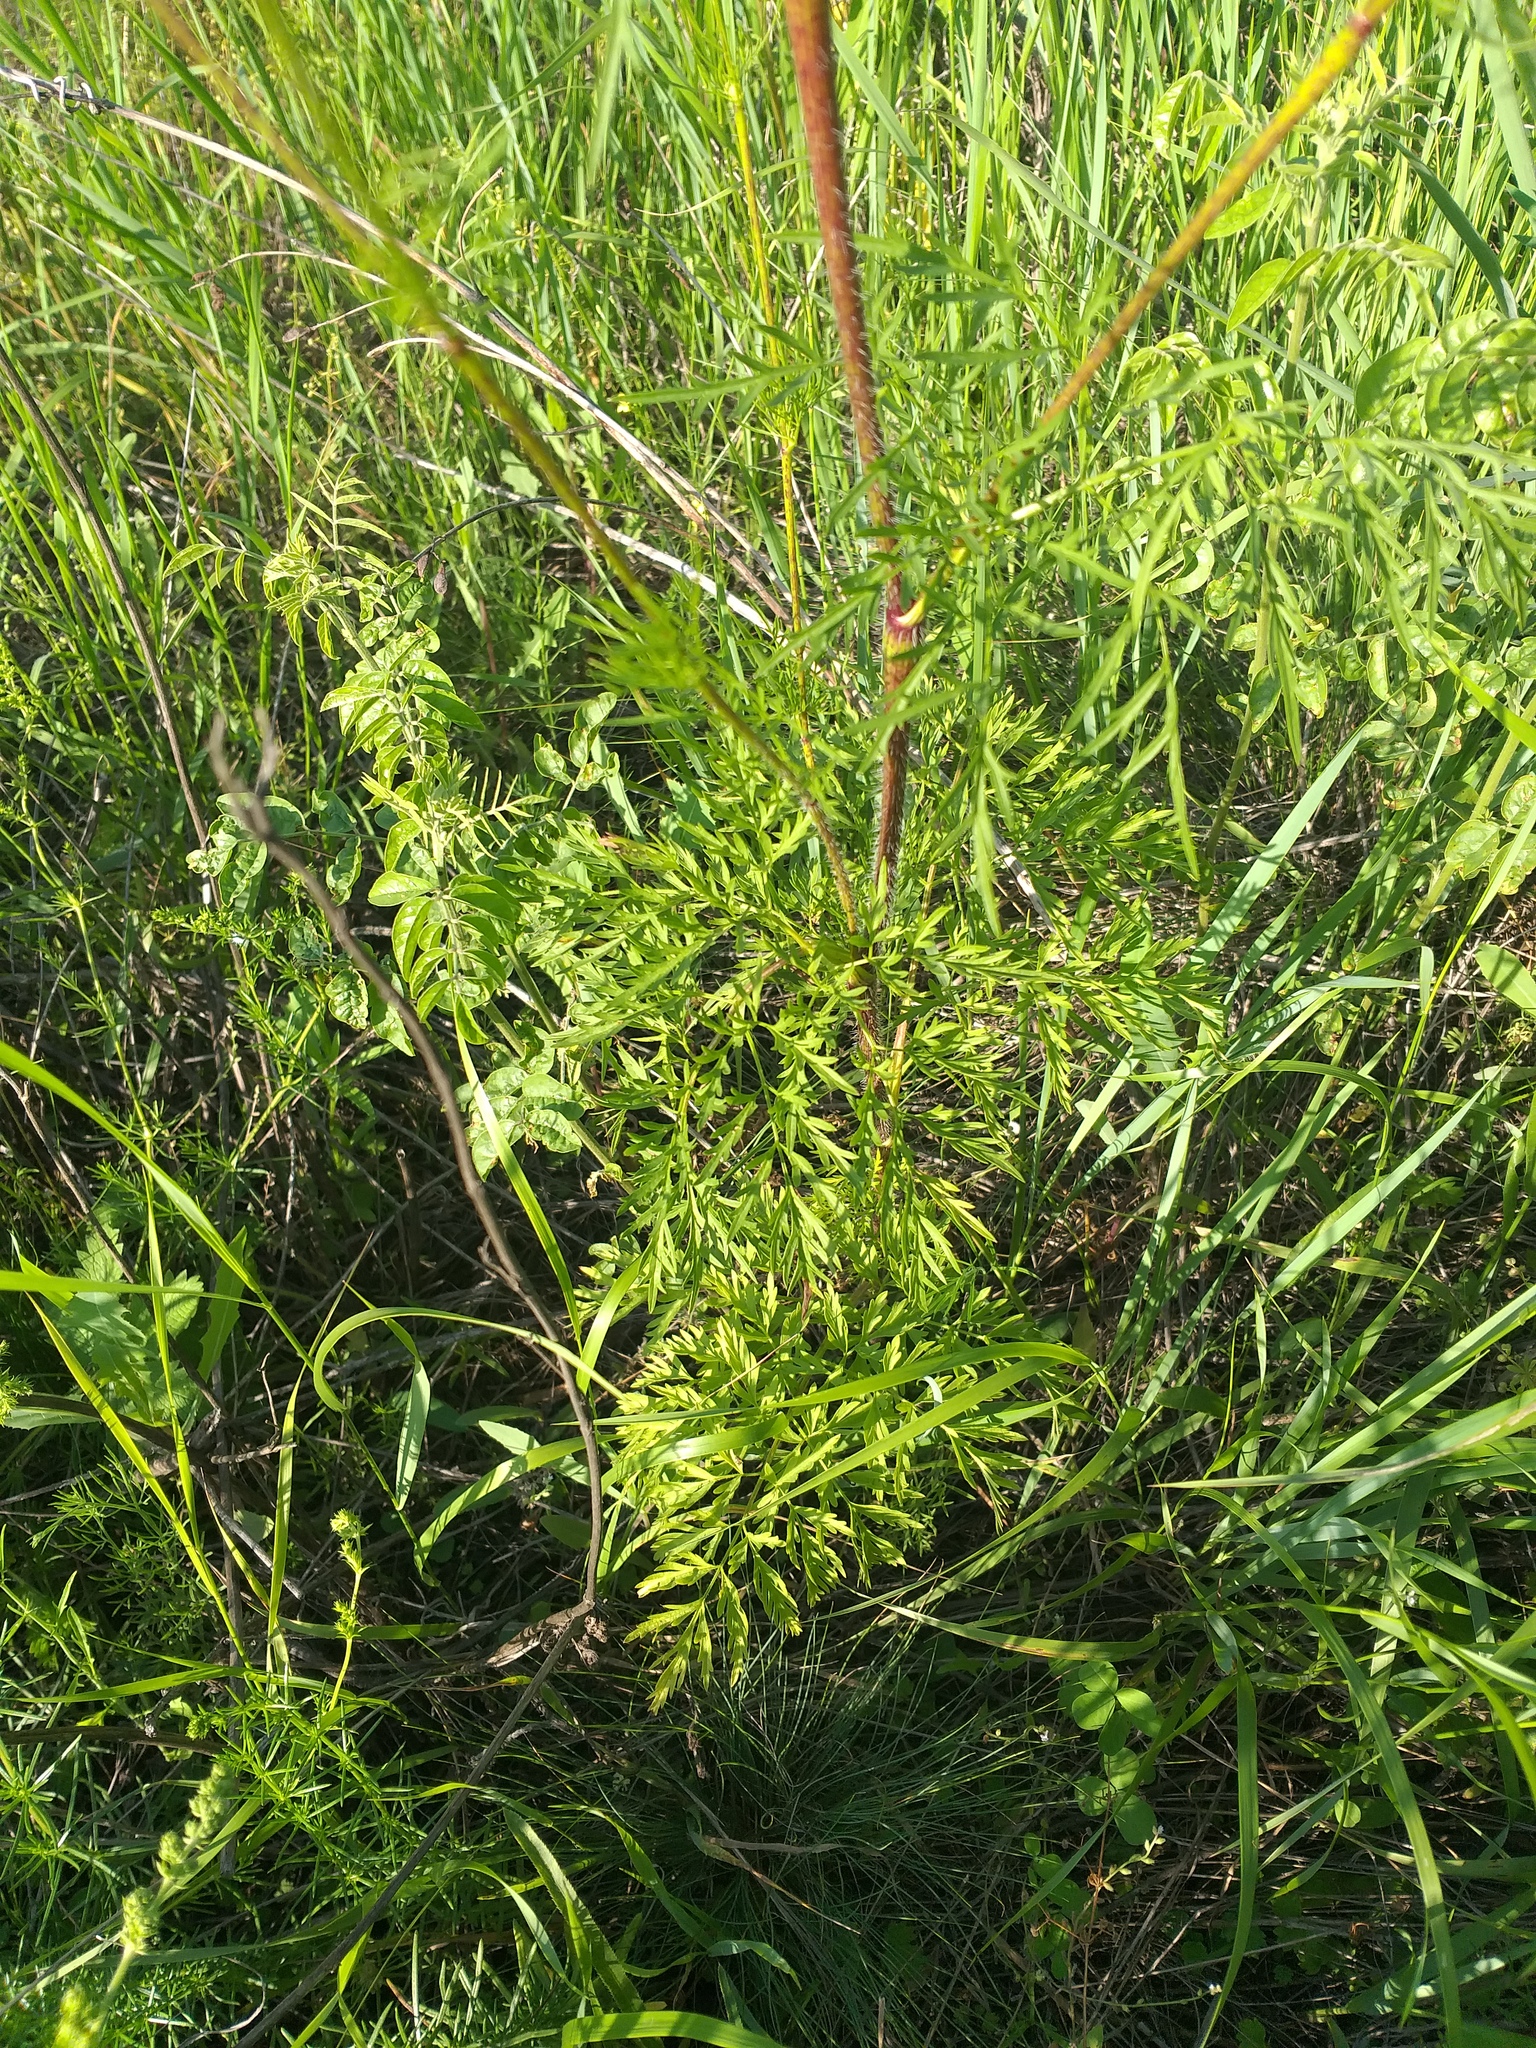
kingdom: Plantae
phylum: Tracheophyta
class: Magnoliopsida
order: Apiales
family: Apiaceae
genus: Chaerophyllum
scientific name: Chaerophyllum prescottii
